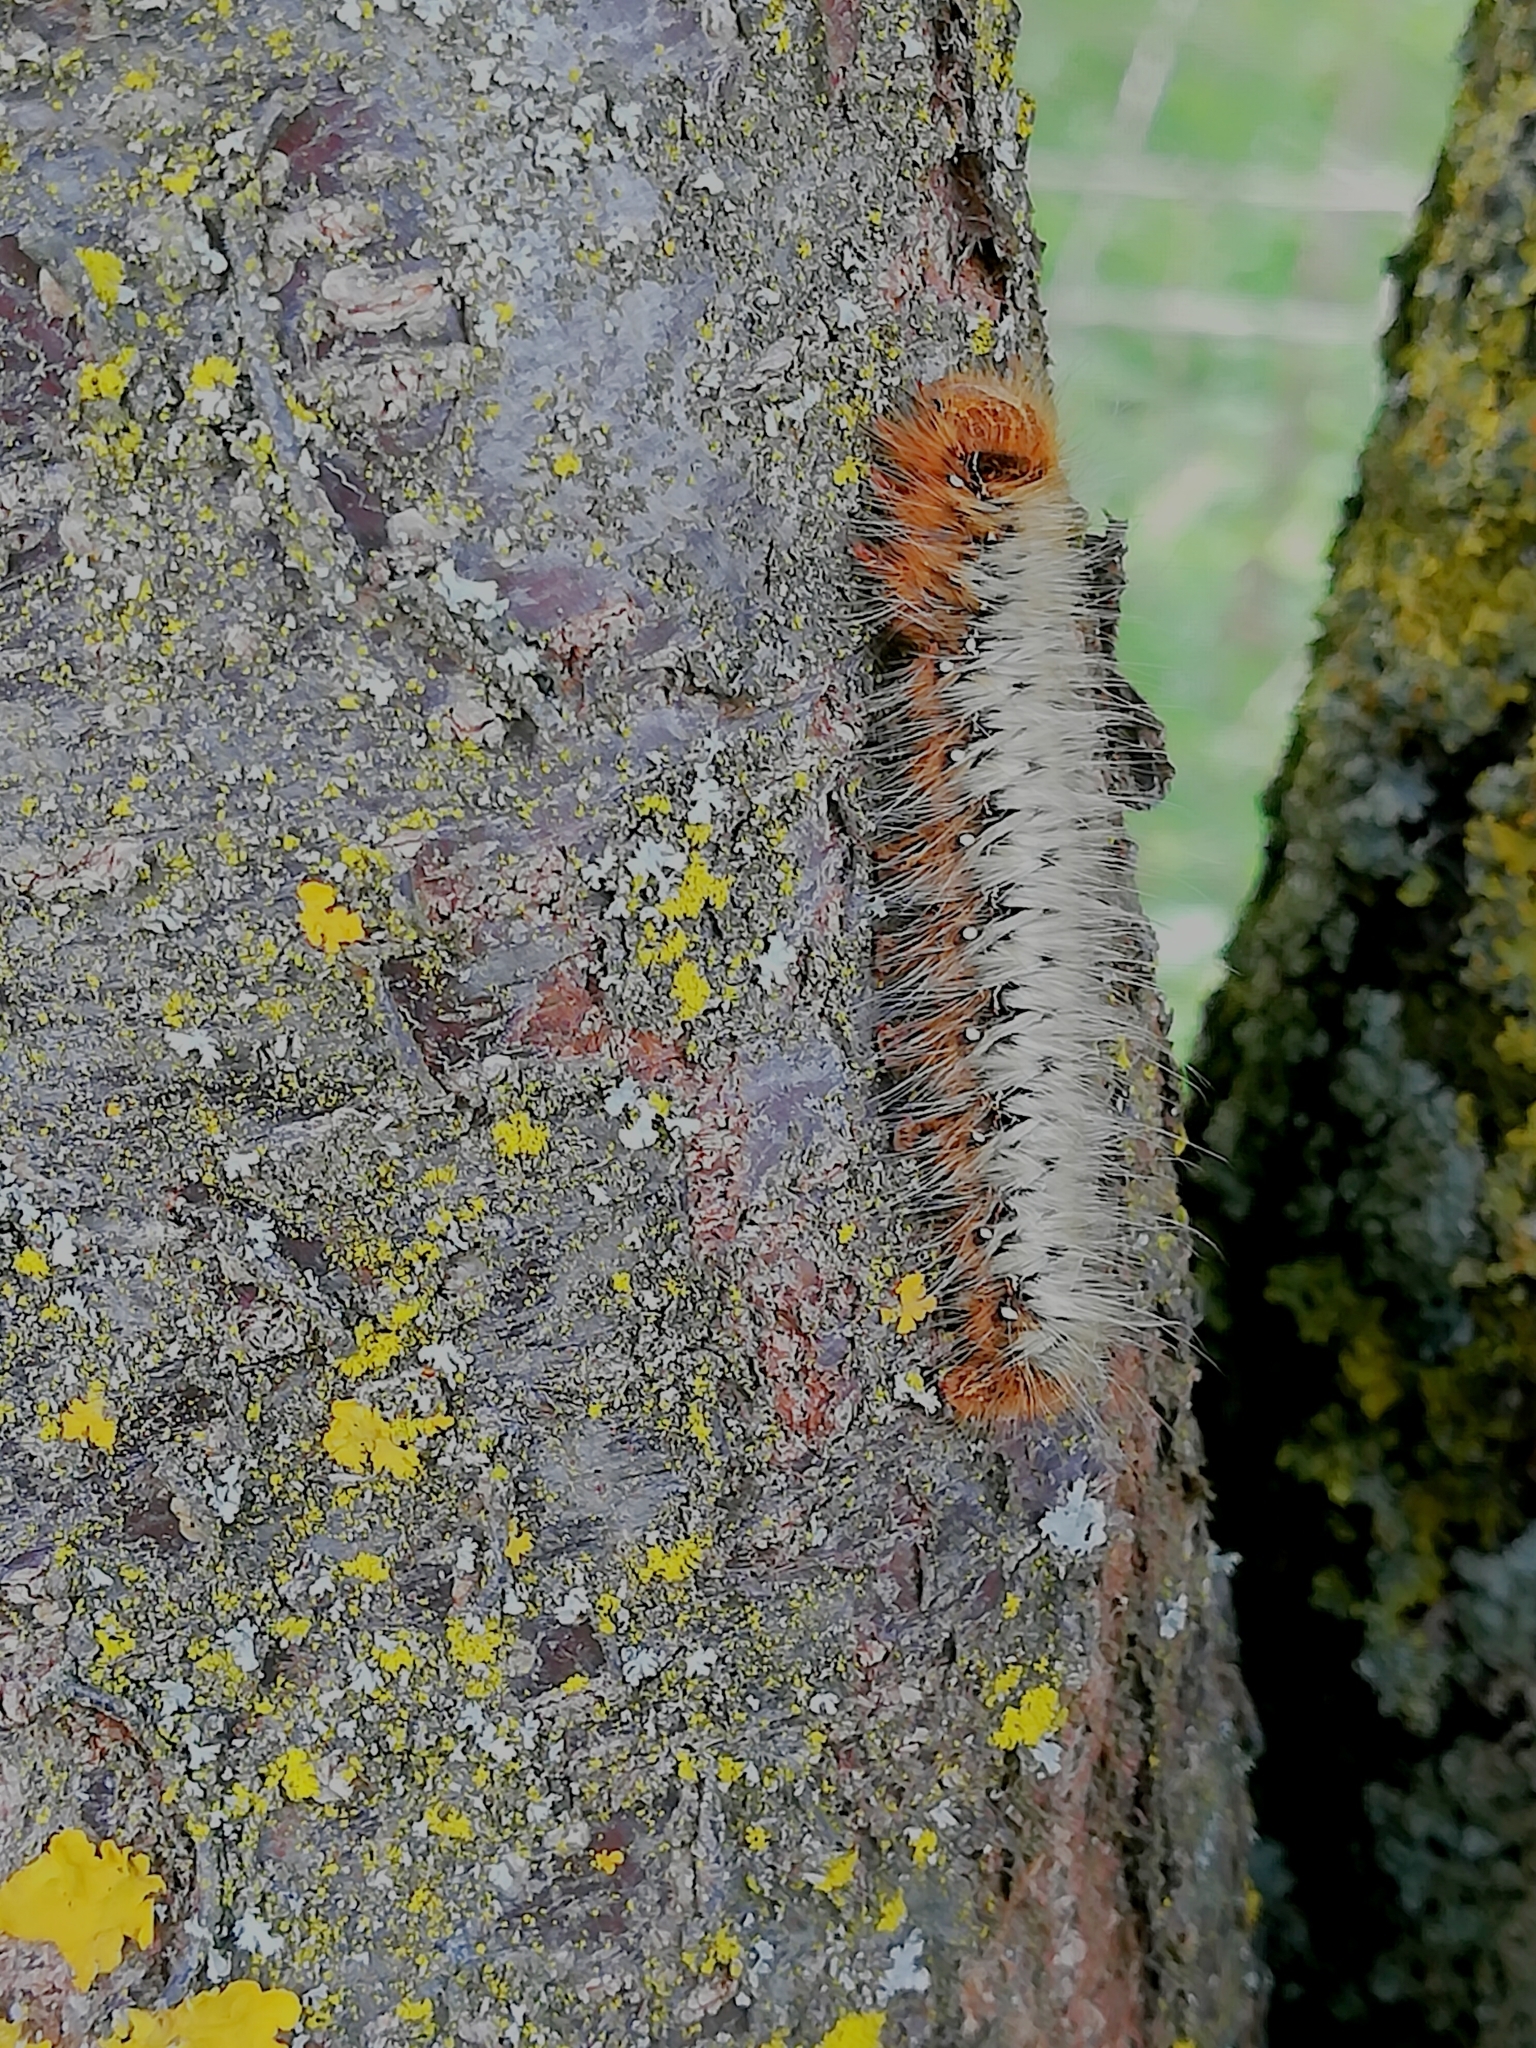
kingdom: Animalia
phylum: Arthropoda
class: Insecta
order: Lepidoptera
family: Lasiocampidae
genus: Lasiocampa
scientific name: Lasiocampa quercus
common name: Oak eggar
